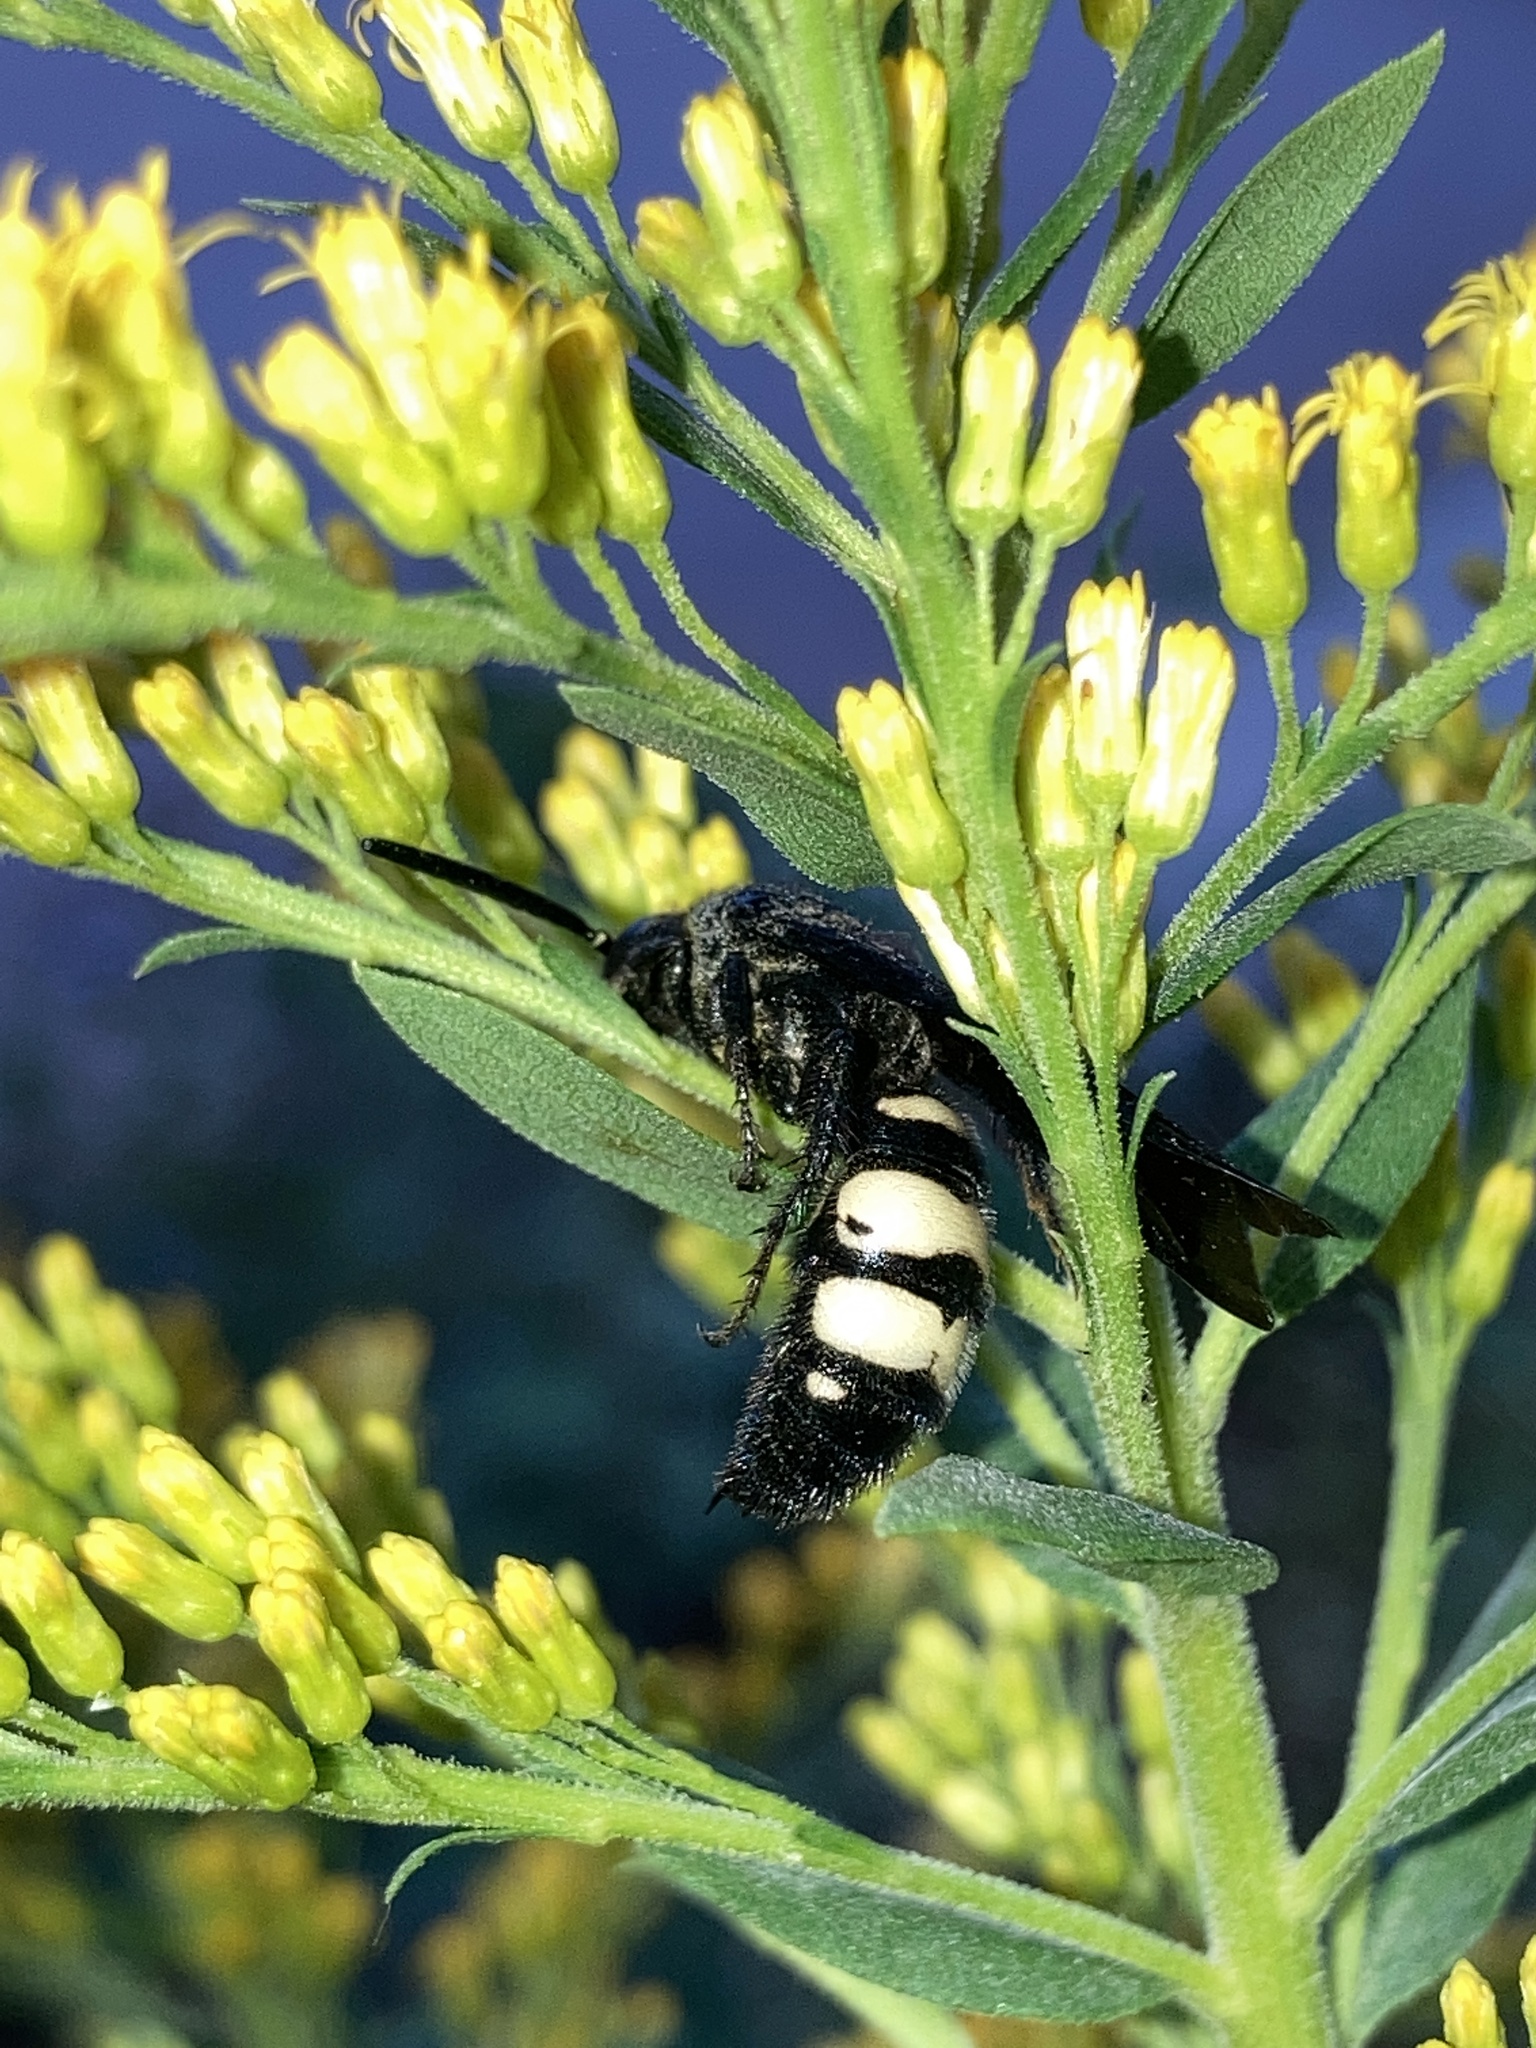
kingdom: Animalia
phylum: Arthropoda
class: Insecta
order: Hymenoptera
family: Scoliidae
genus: Scolia
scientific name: Scolia bicincta
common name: Double-banded scoliid wasp
